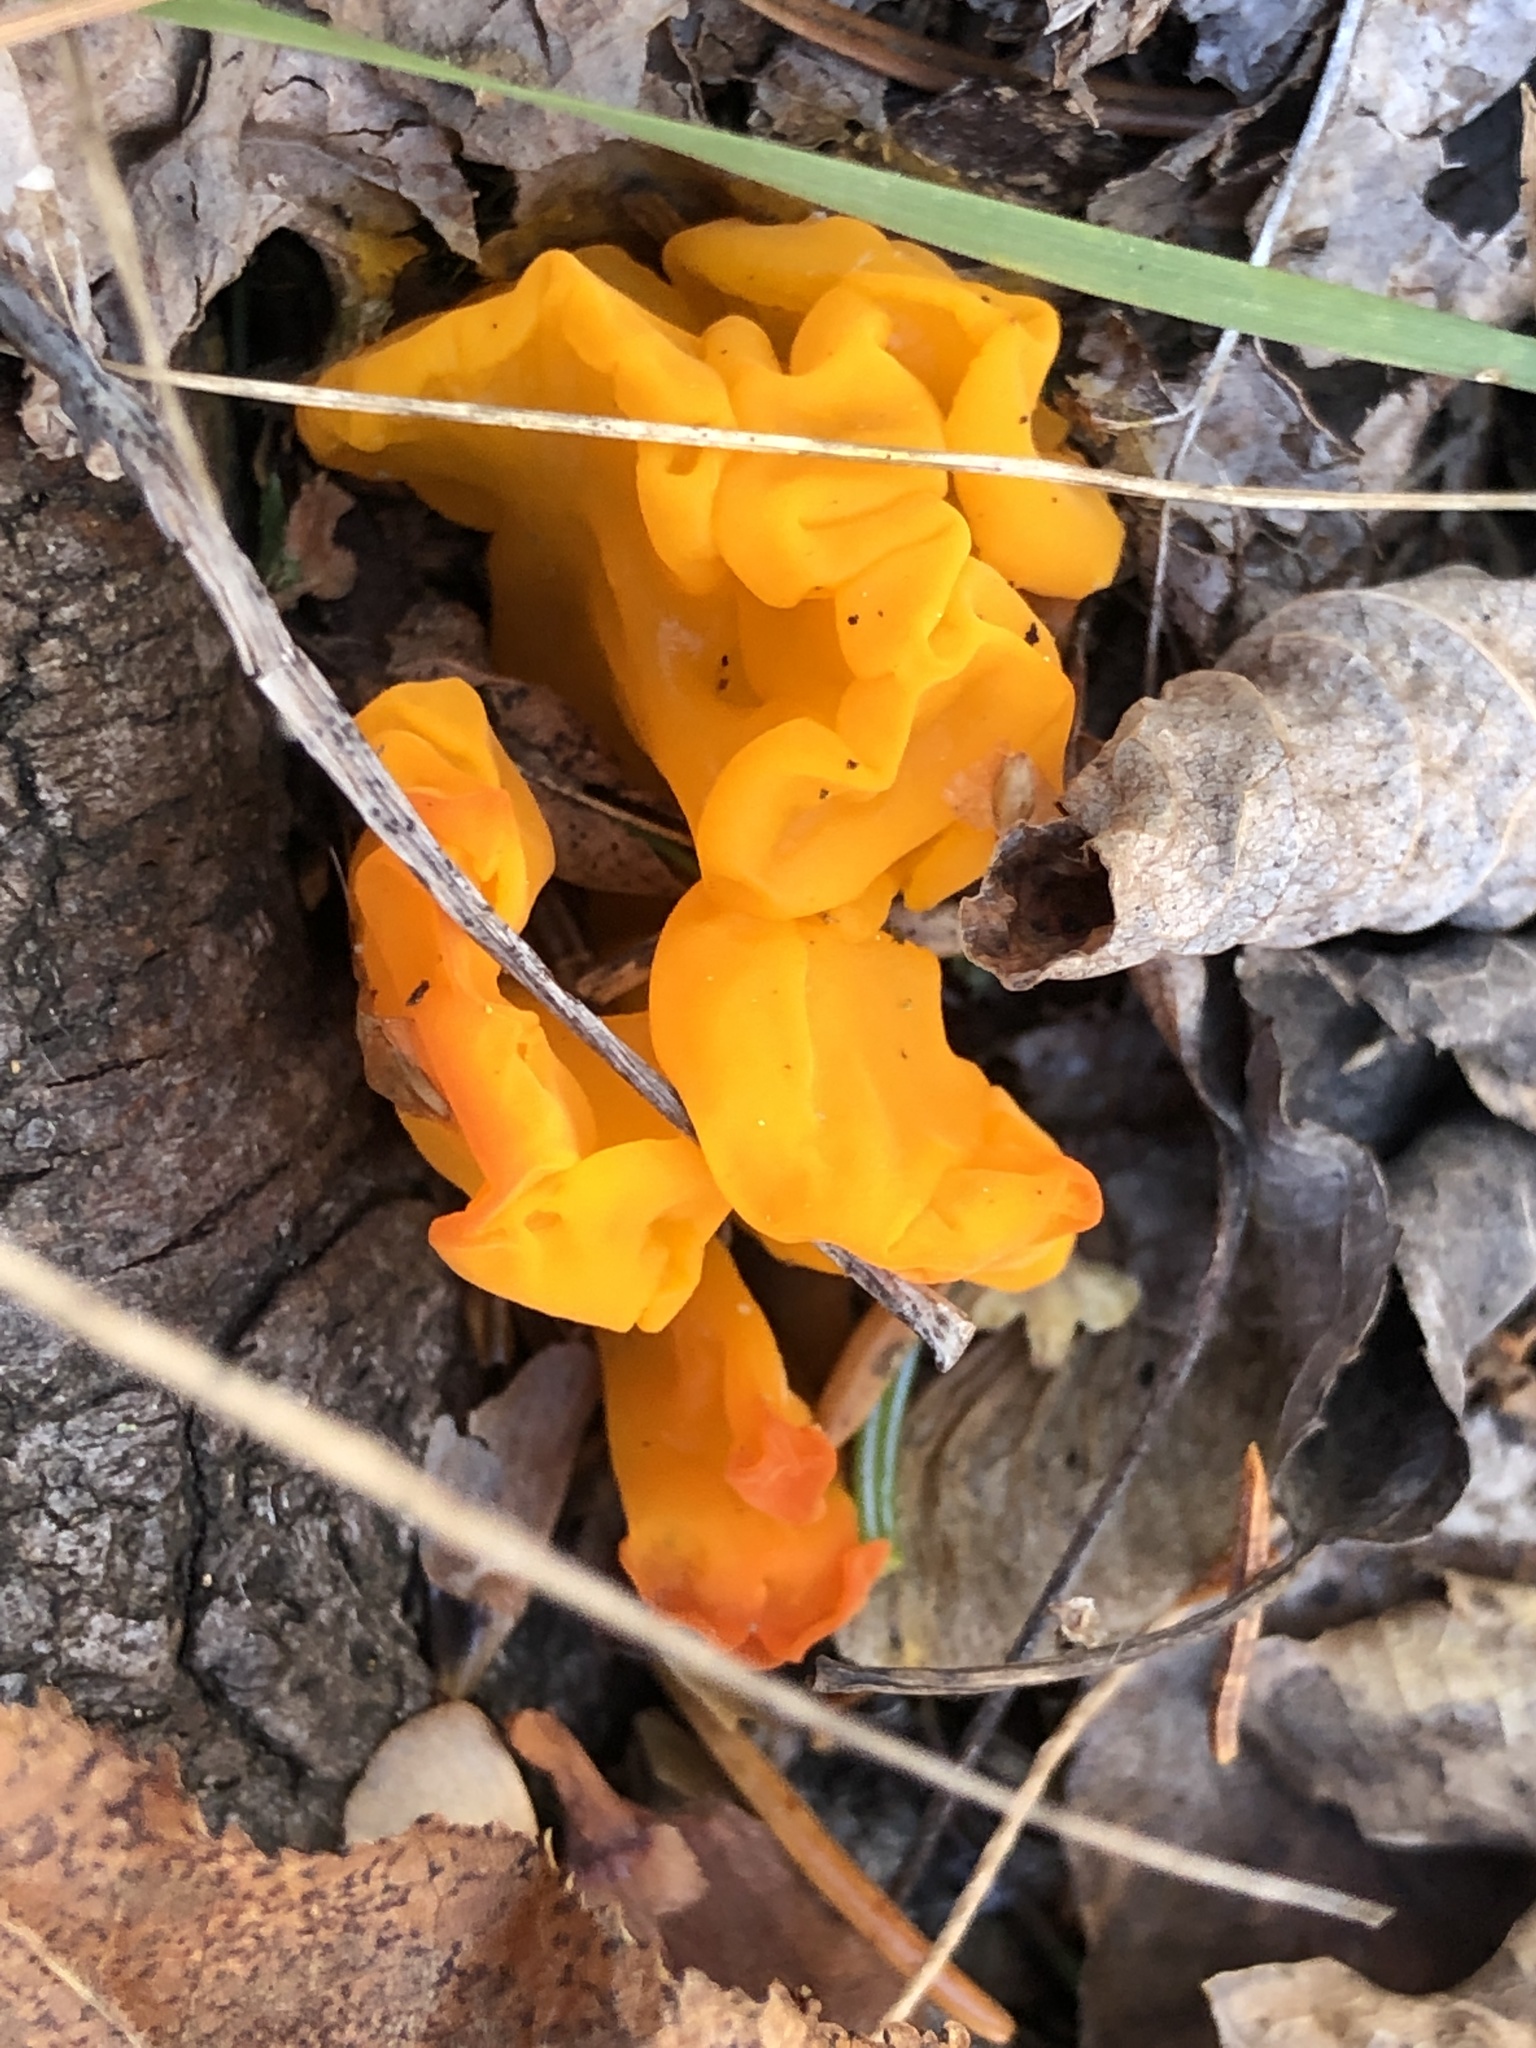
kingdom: Fungi
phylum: Basidiomycota
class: Tremellomycetes
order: Tremellales
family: Tremellaceae
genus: Tremella
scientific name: Tremella mesenterica
